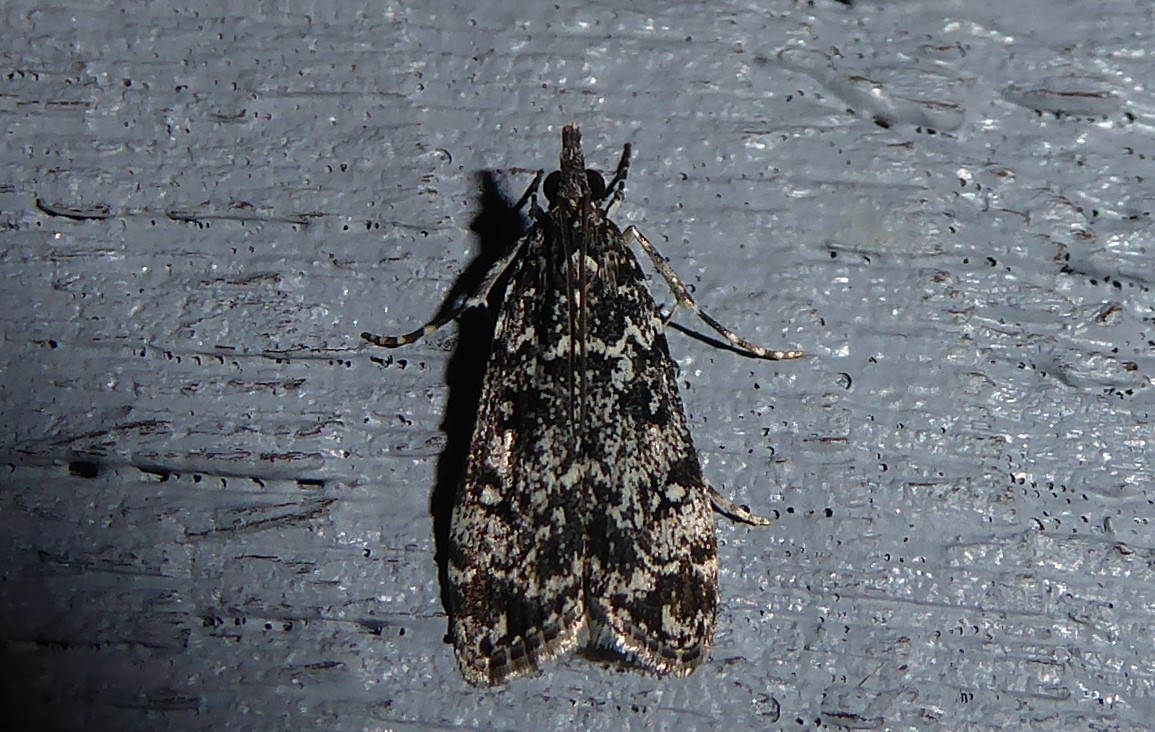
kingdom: Animalia
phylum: Arthropoda
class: Insecta
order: Lepidoptera
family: Crambidae
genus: Eudonia
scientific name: Eudonia philerga
